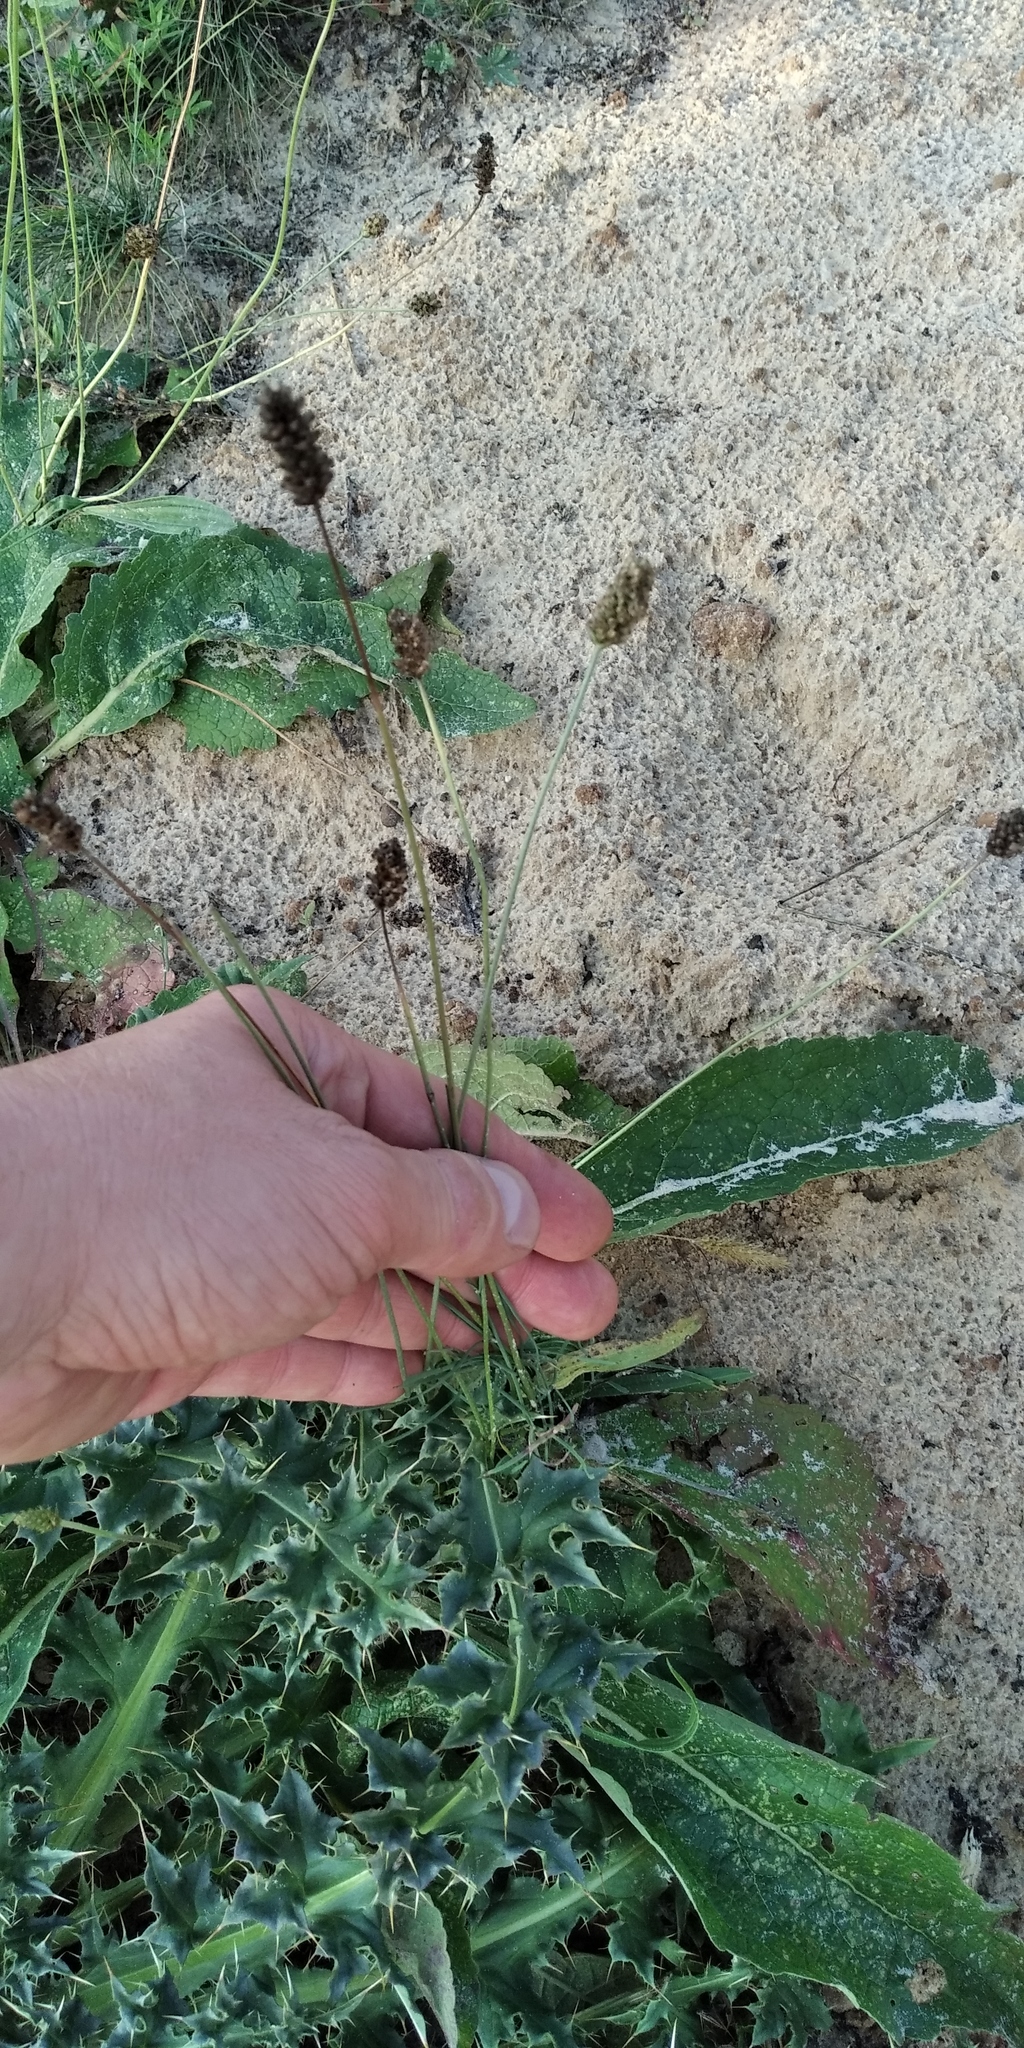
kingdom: Plantae
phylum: Tracheophyta
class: Magnoliopsida
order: Lamiales
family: Plantaginaceae
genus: Plantago
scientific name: Plantago lanceolata
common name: Ribwort plantain
